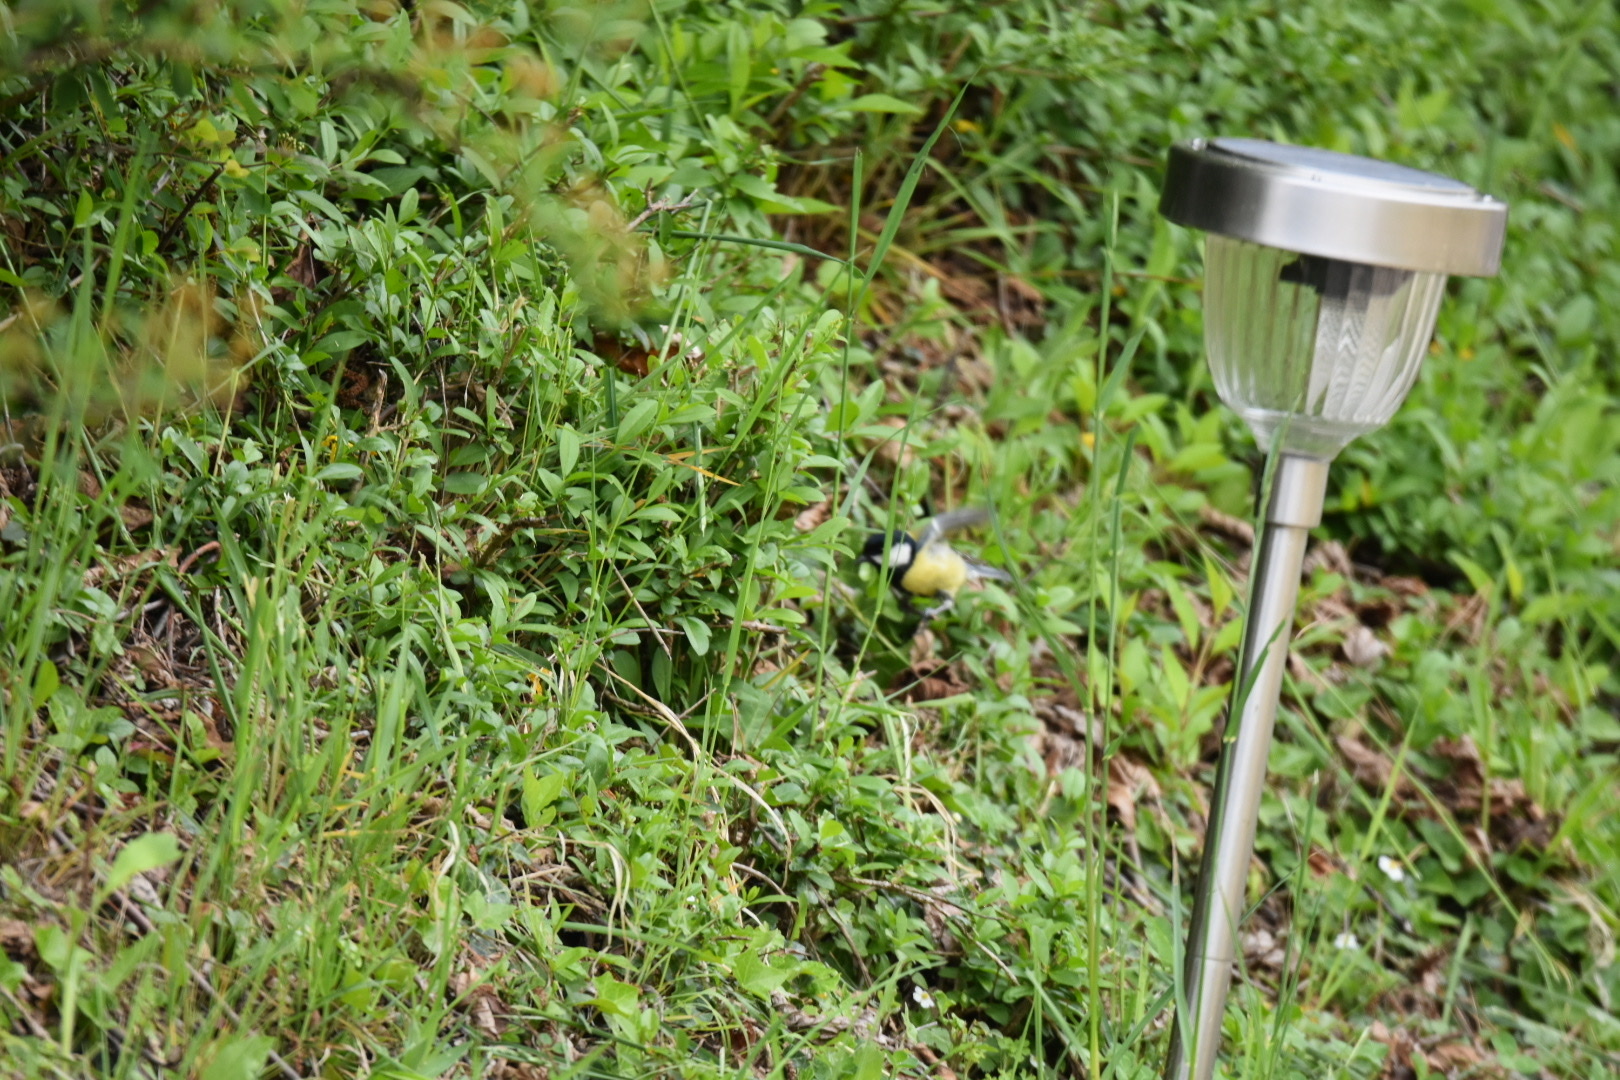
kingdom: Animalia
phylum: Chordata
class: Aves
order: Passeriformes
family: Paridae
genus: Parus
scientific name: Parus major
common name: Great tit
